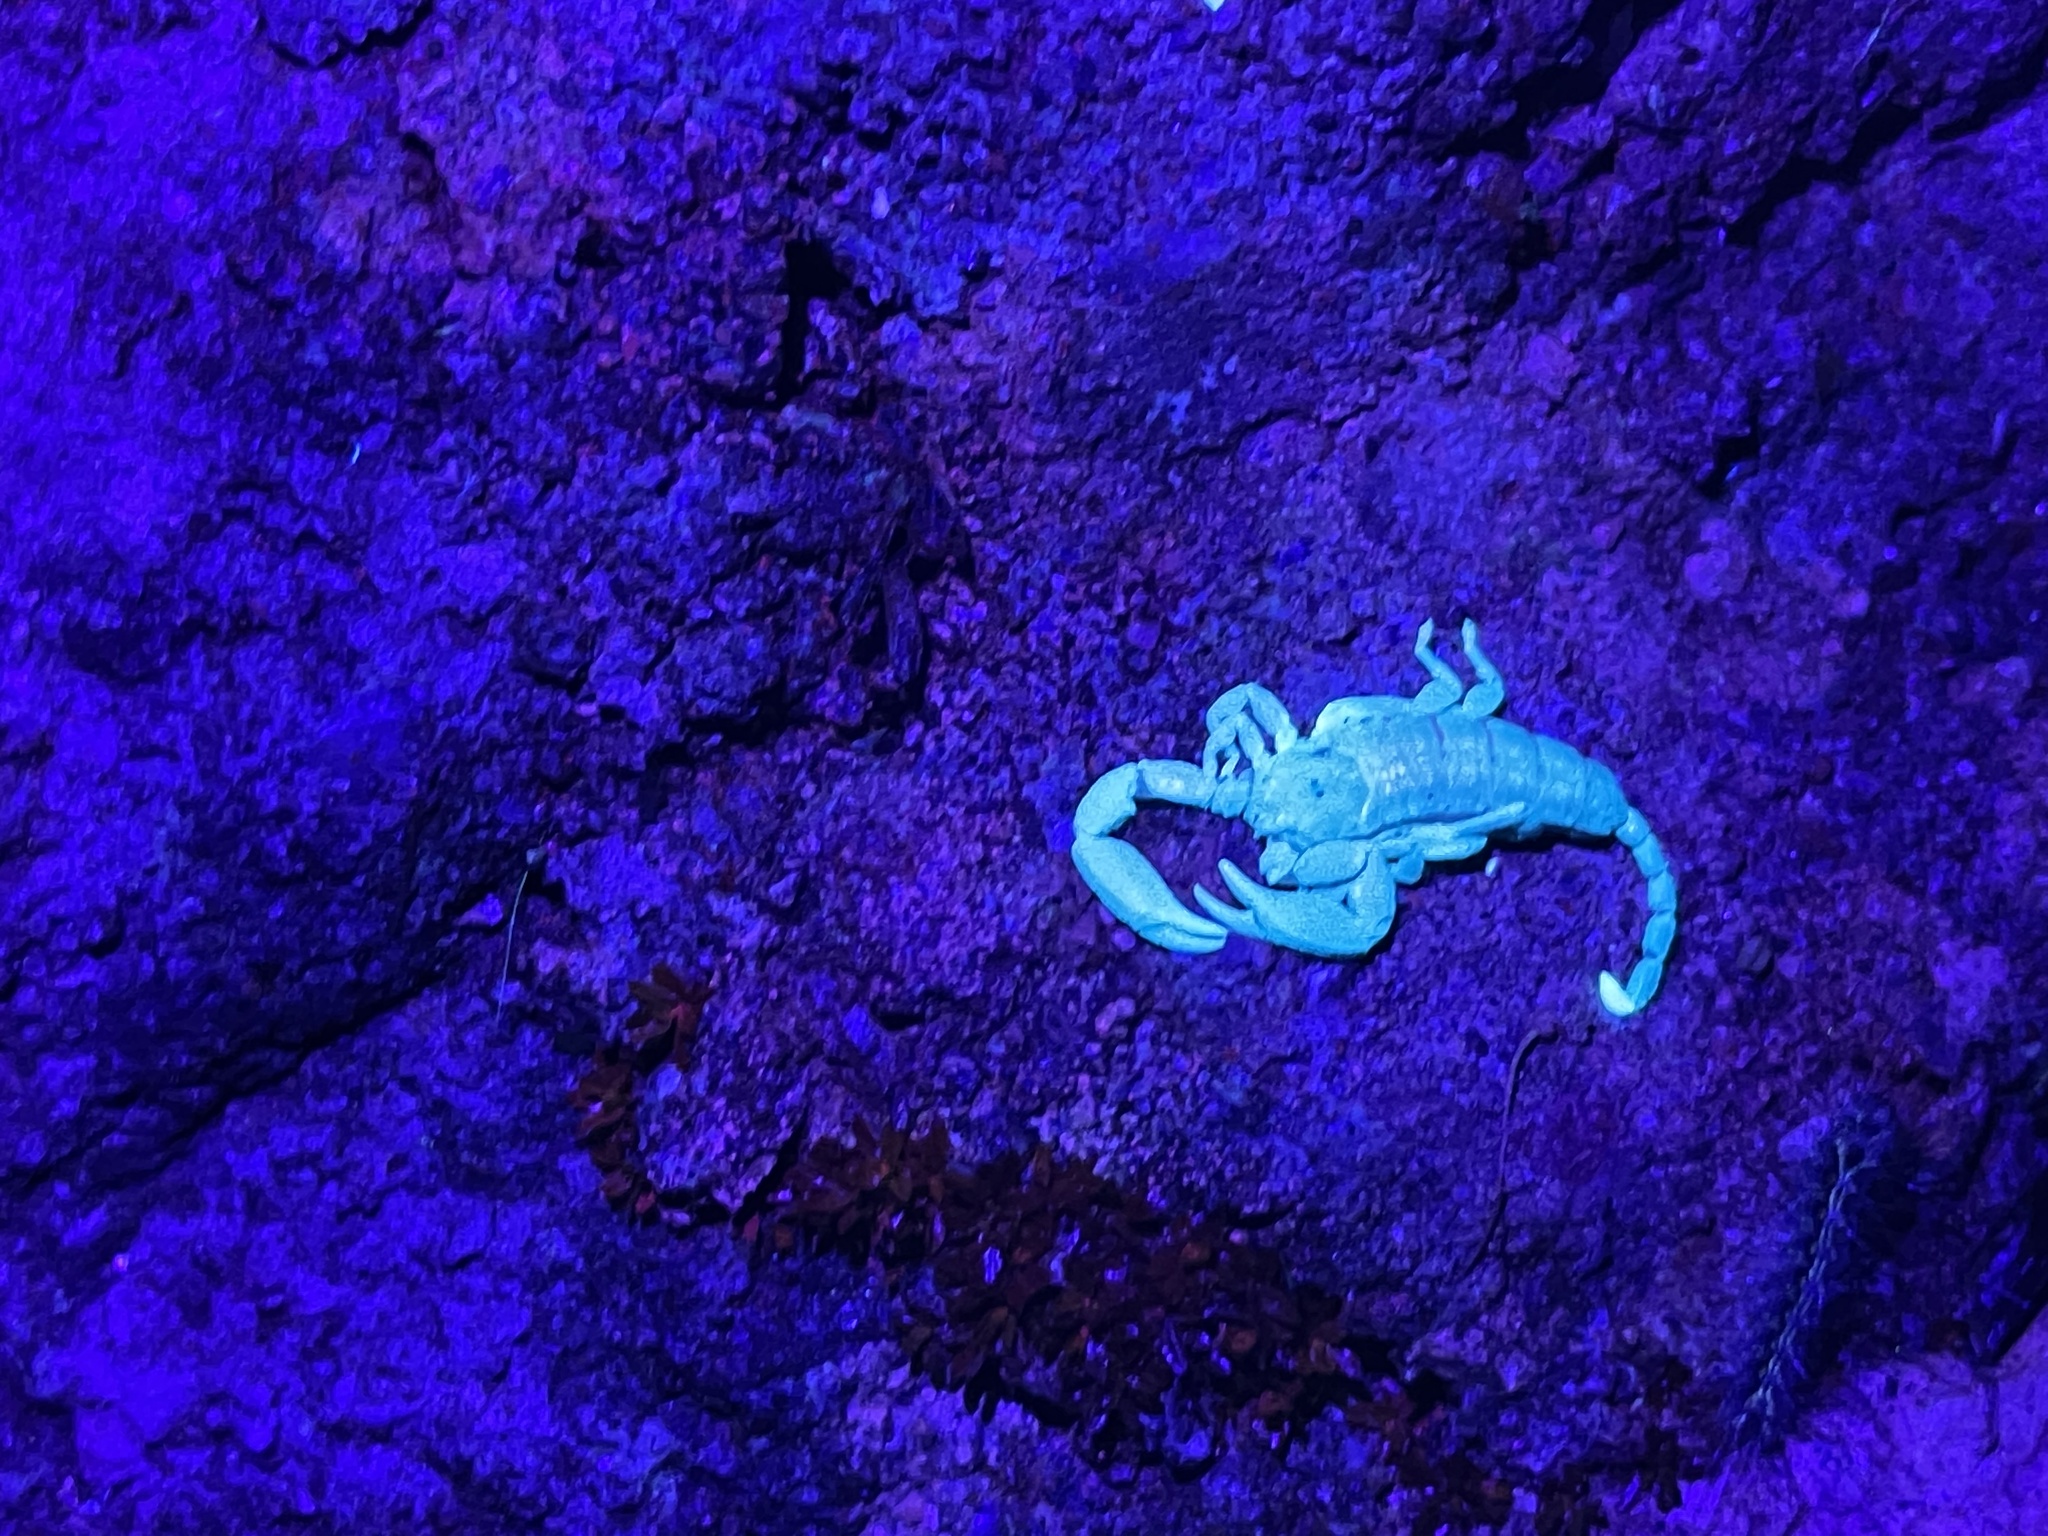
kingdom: Animalia
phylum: Arthropoda
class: Arachnida
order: Scorpiones
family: Hormuridae
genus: Liocheles
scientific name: Liocheles australasiae
